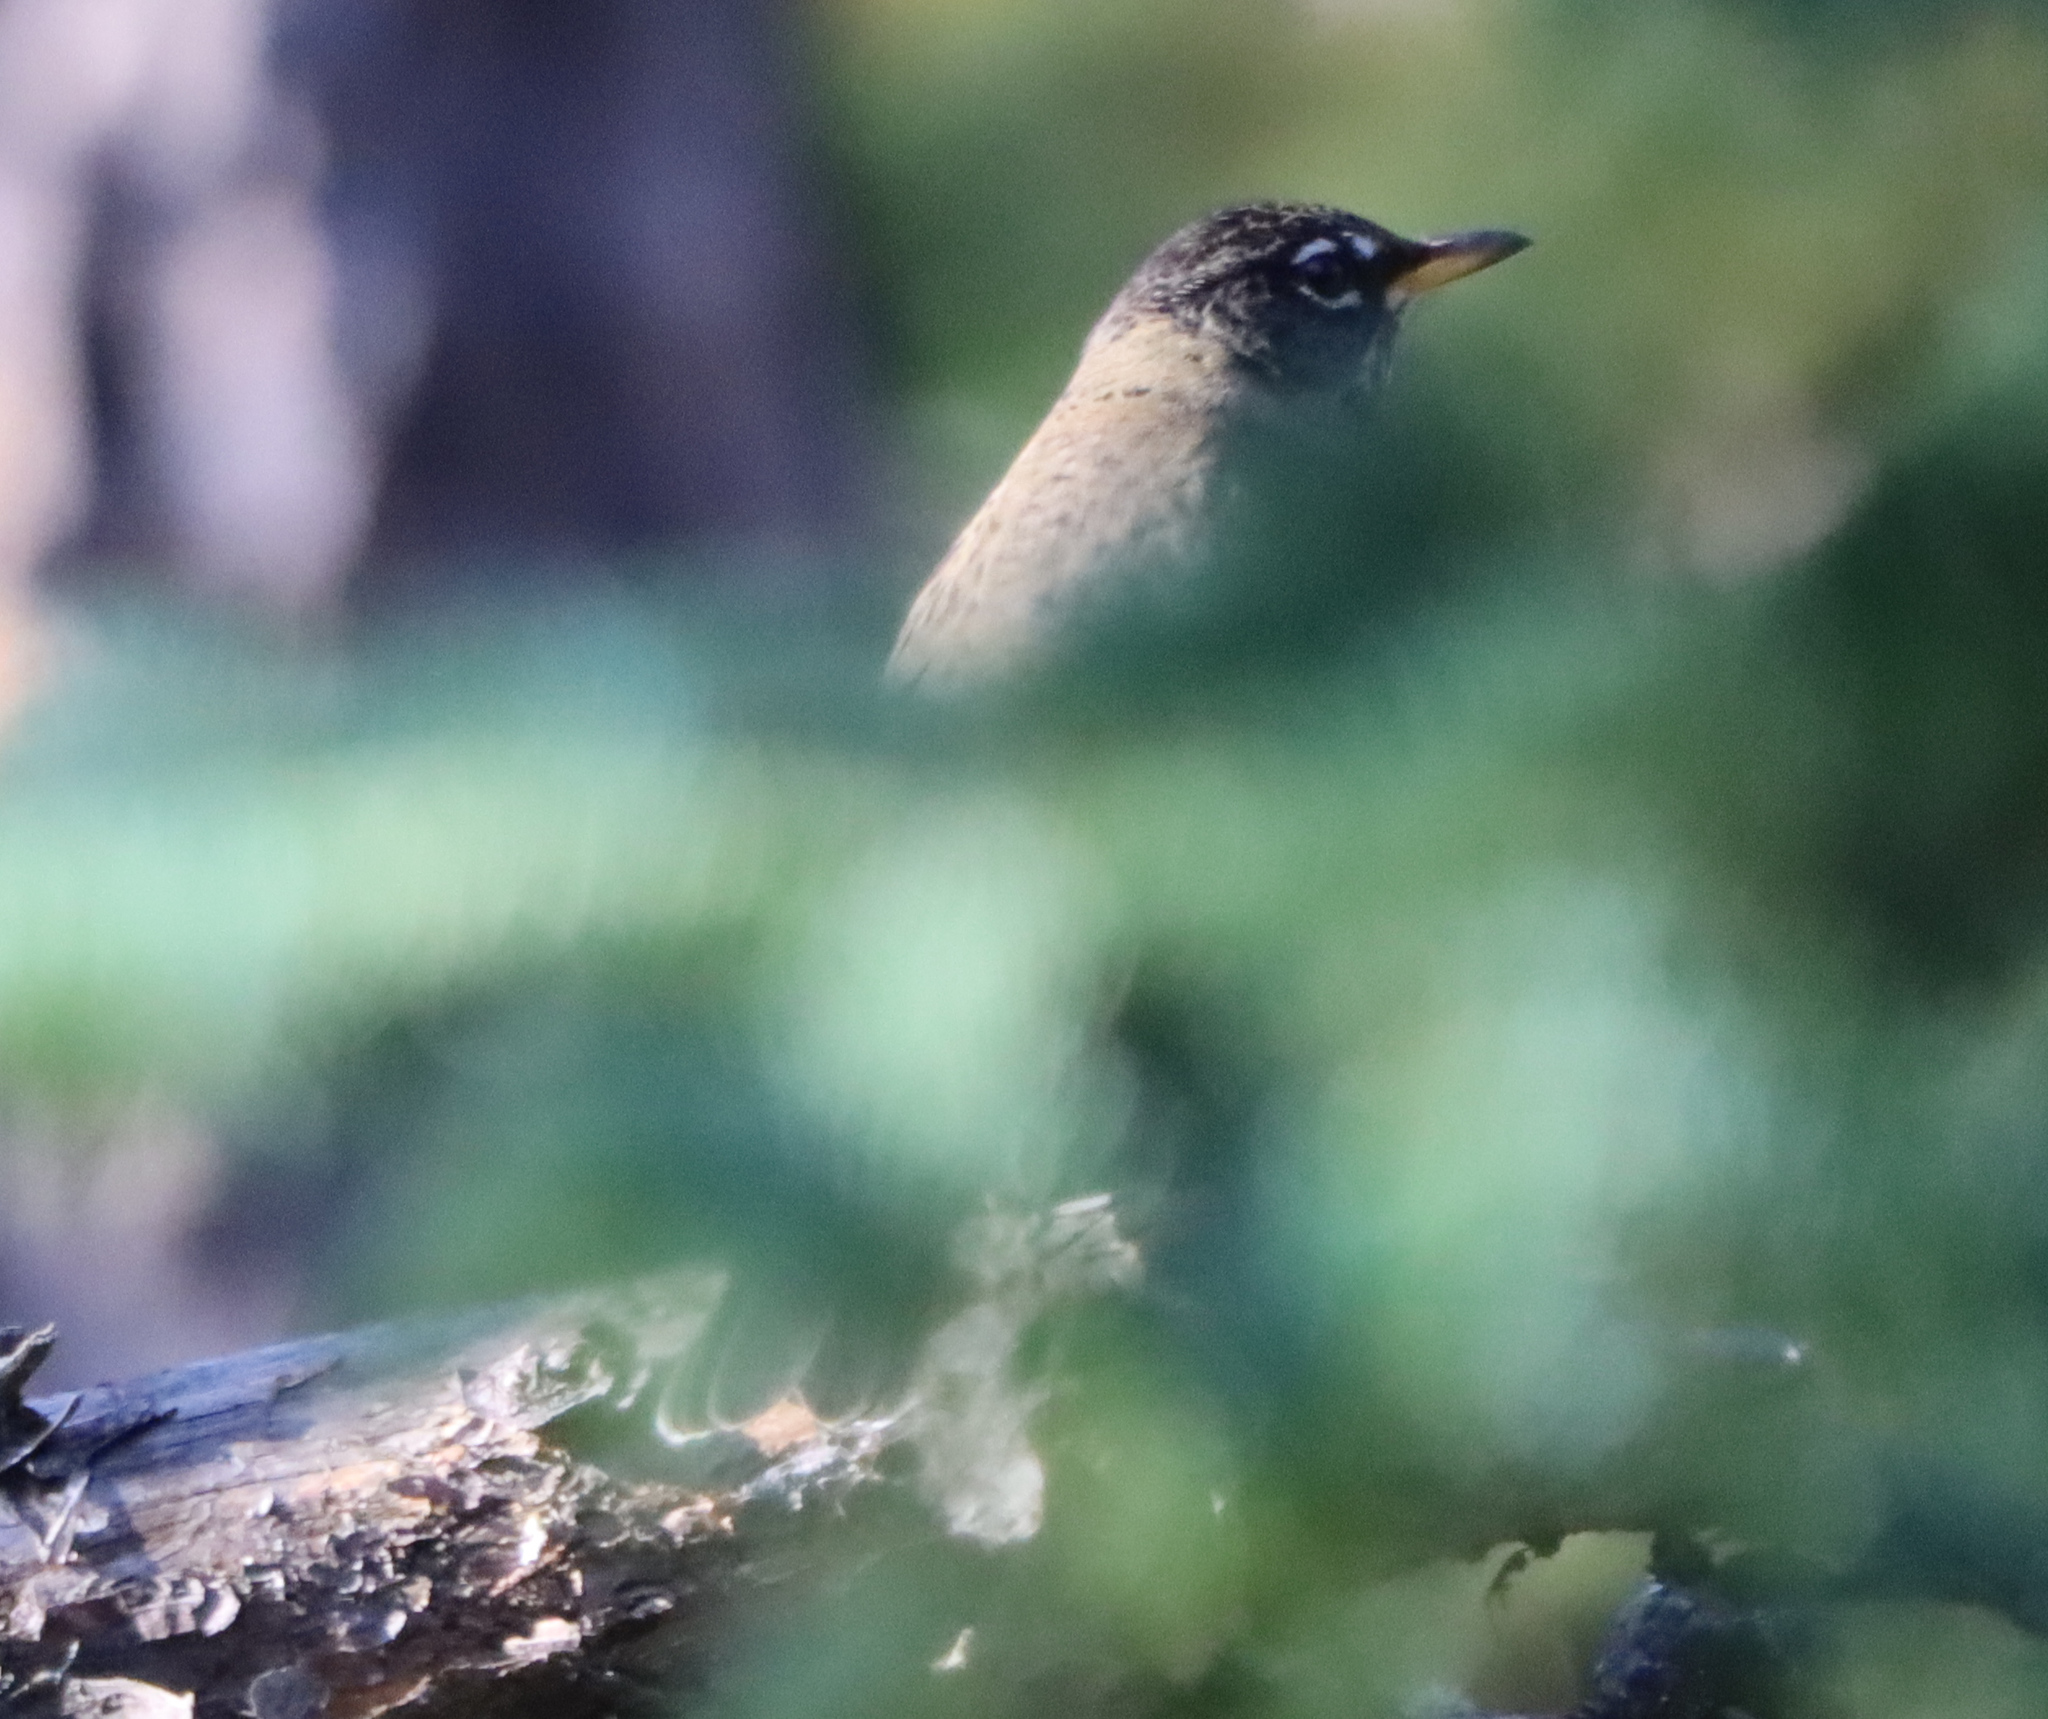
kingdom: Animalia
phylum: Chordata
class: Aves
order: Passeriformes
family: Turdidae
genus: Turdus
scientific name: Turdus migratorius
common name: American robin
